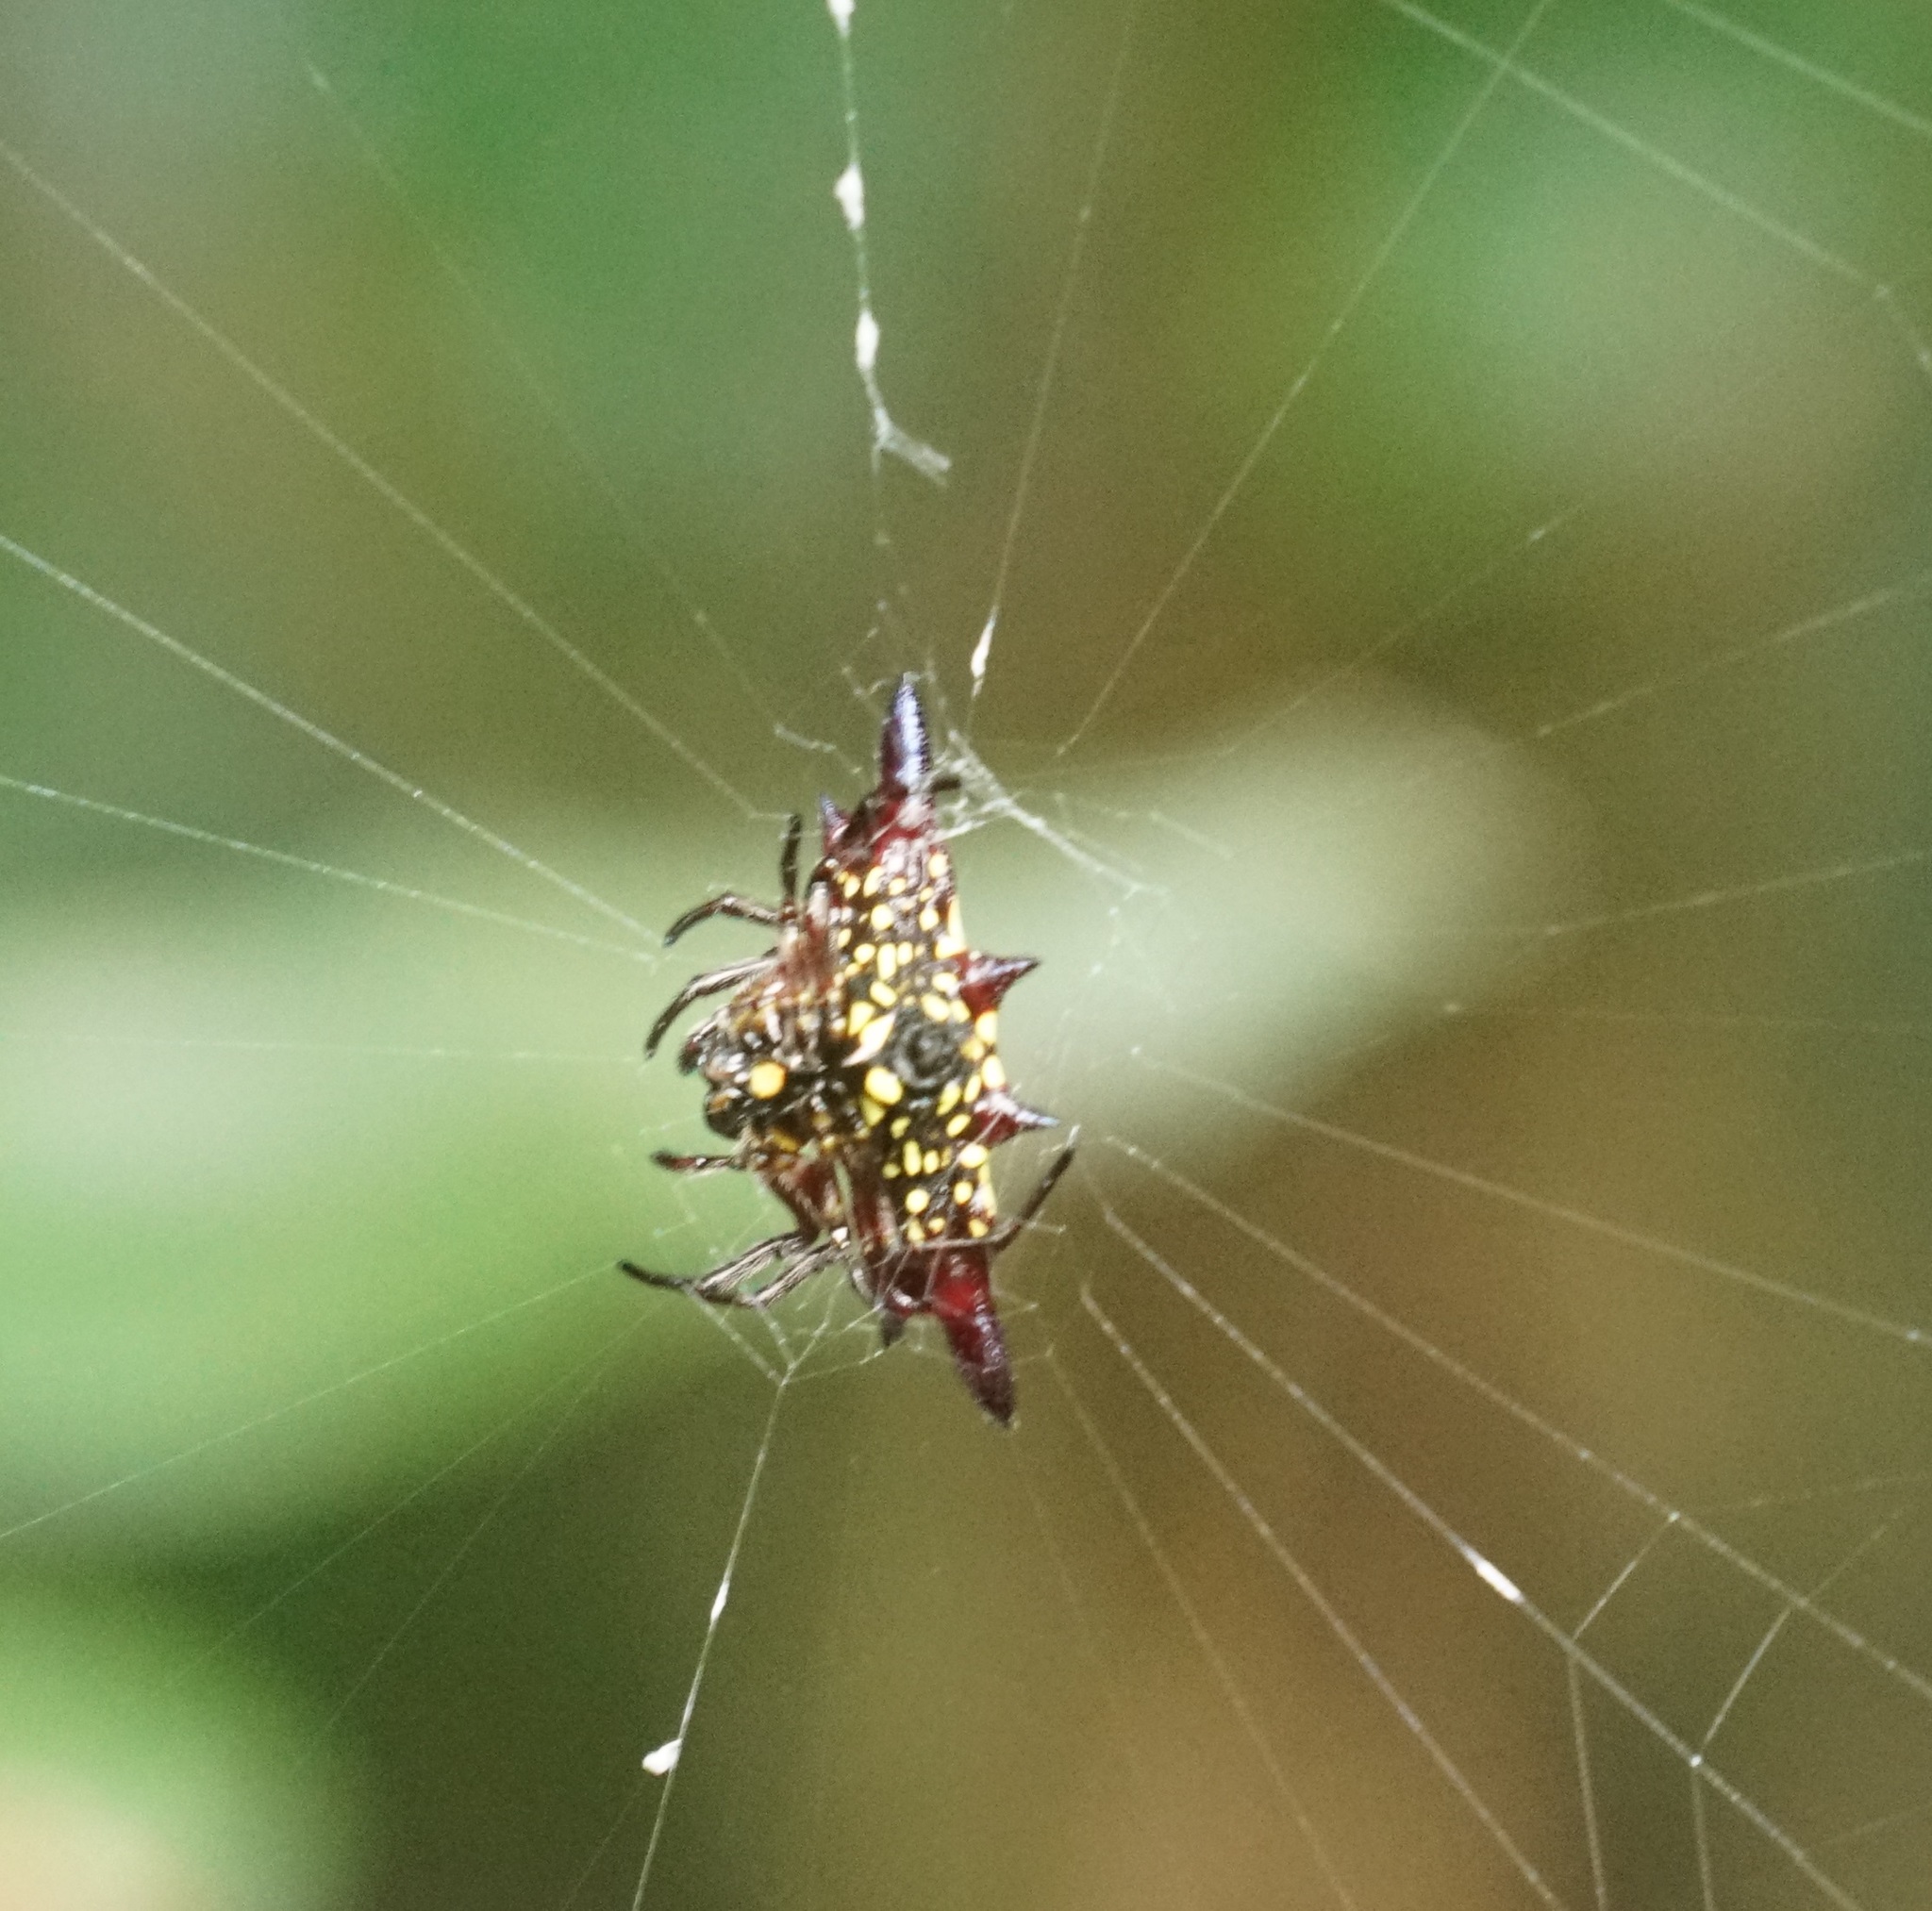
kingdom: Animalia
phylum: Arthropoda
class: Arachnida
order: Araneae
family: Araneidae
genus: Gasteracantha
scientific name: Gasteracantha fornicata
